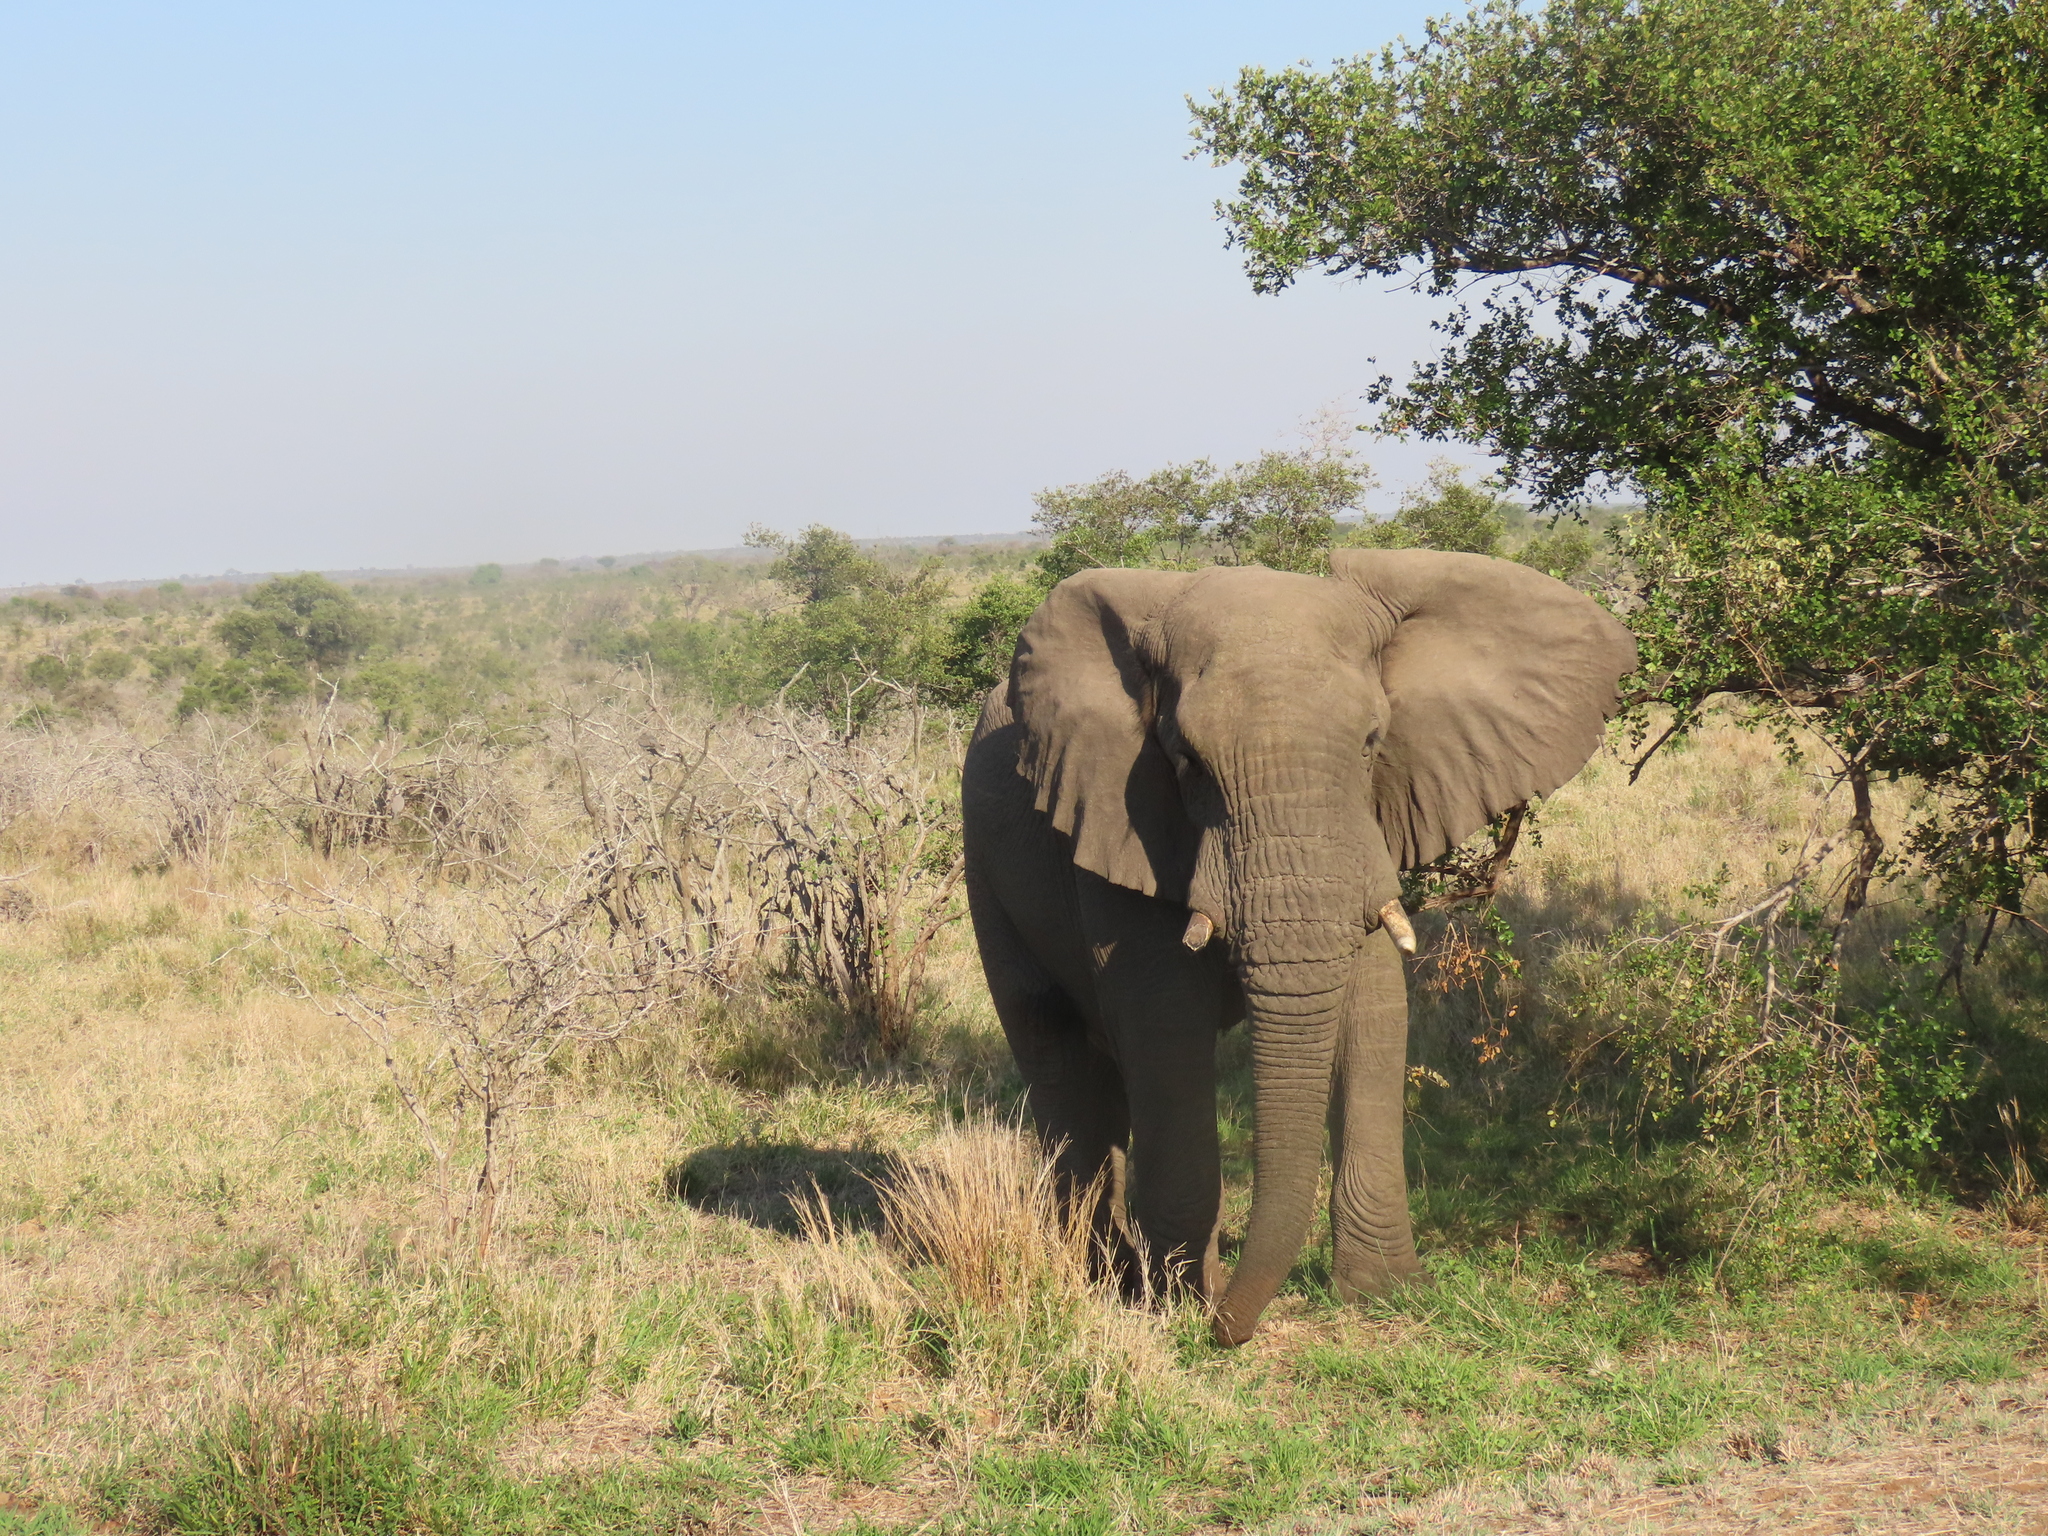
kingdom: Animalia
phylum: Chordata
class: Mammalia
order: Proboscidea
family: Elephantidae
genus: Loxodonta
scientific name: Loxodonta africana
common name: African elephant
